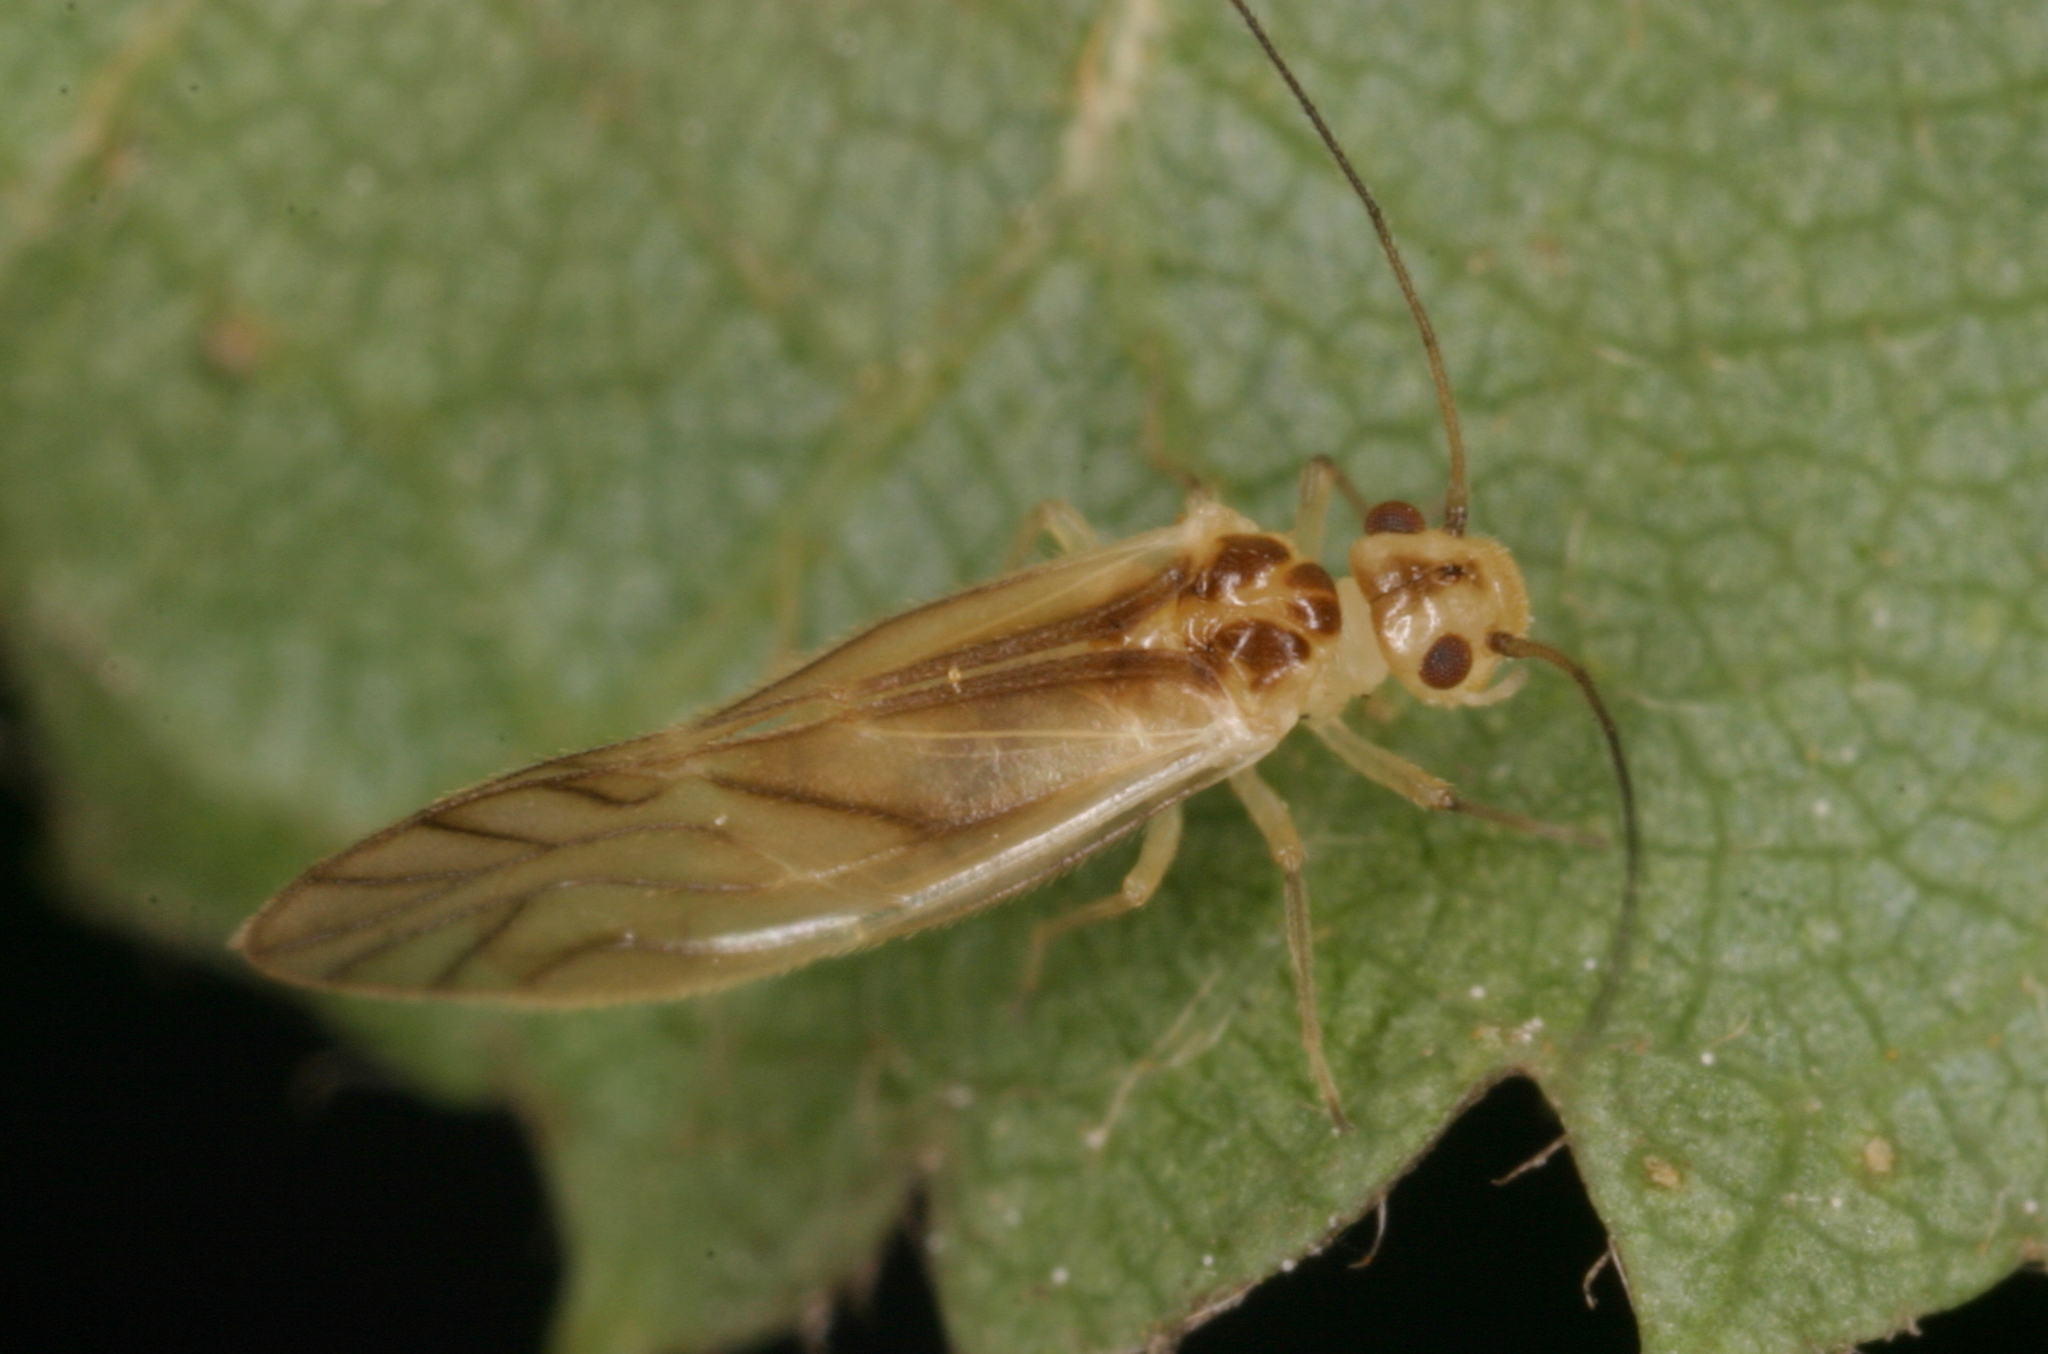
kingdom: Animalia
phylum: Arthropoda
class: Insecta
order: Psocodea
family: Caeciliusidae
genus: Valenzuela
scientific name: Valenzuela flavidus
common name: Yellow barklouse
